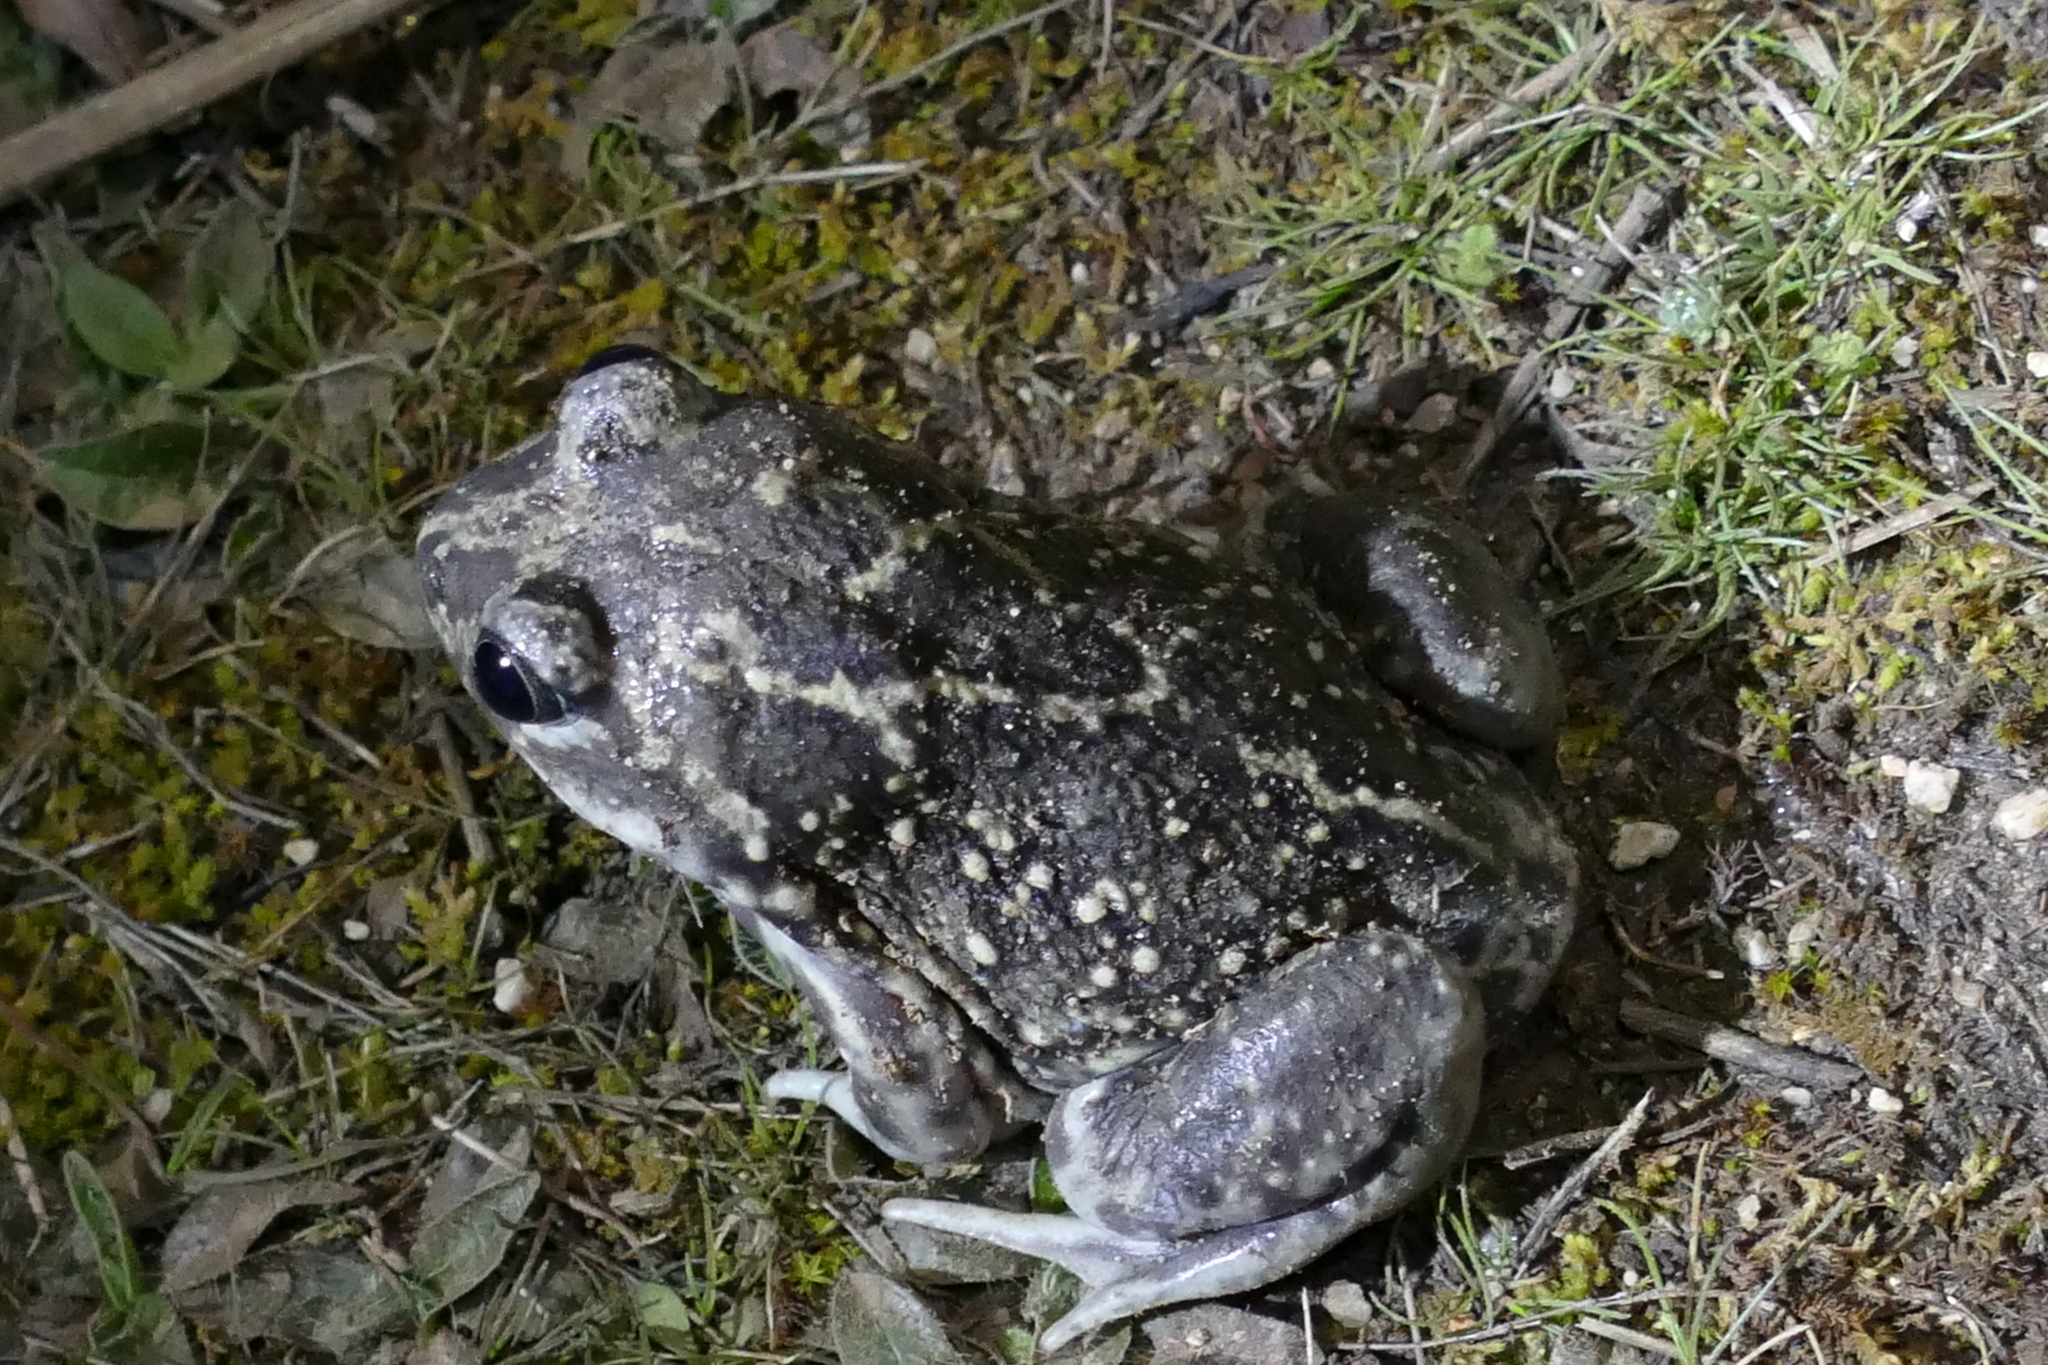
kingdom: Animalia
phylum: Chordata
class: Amphibia
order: Anura
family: Pelobatidae
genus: Pelobates
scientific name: Pelobates cultripes
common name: Western spadefoot
